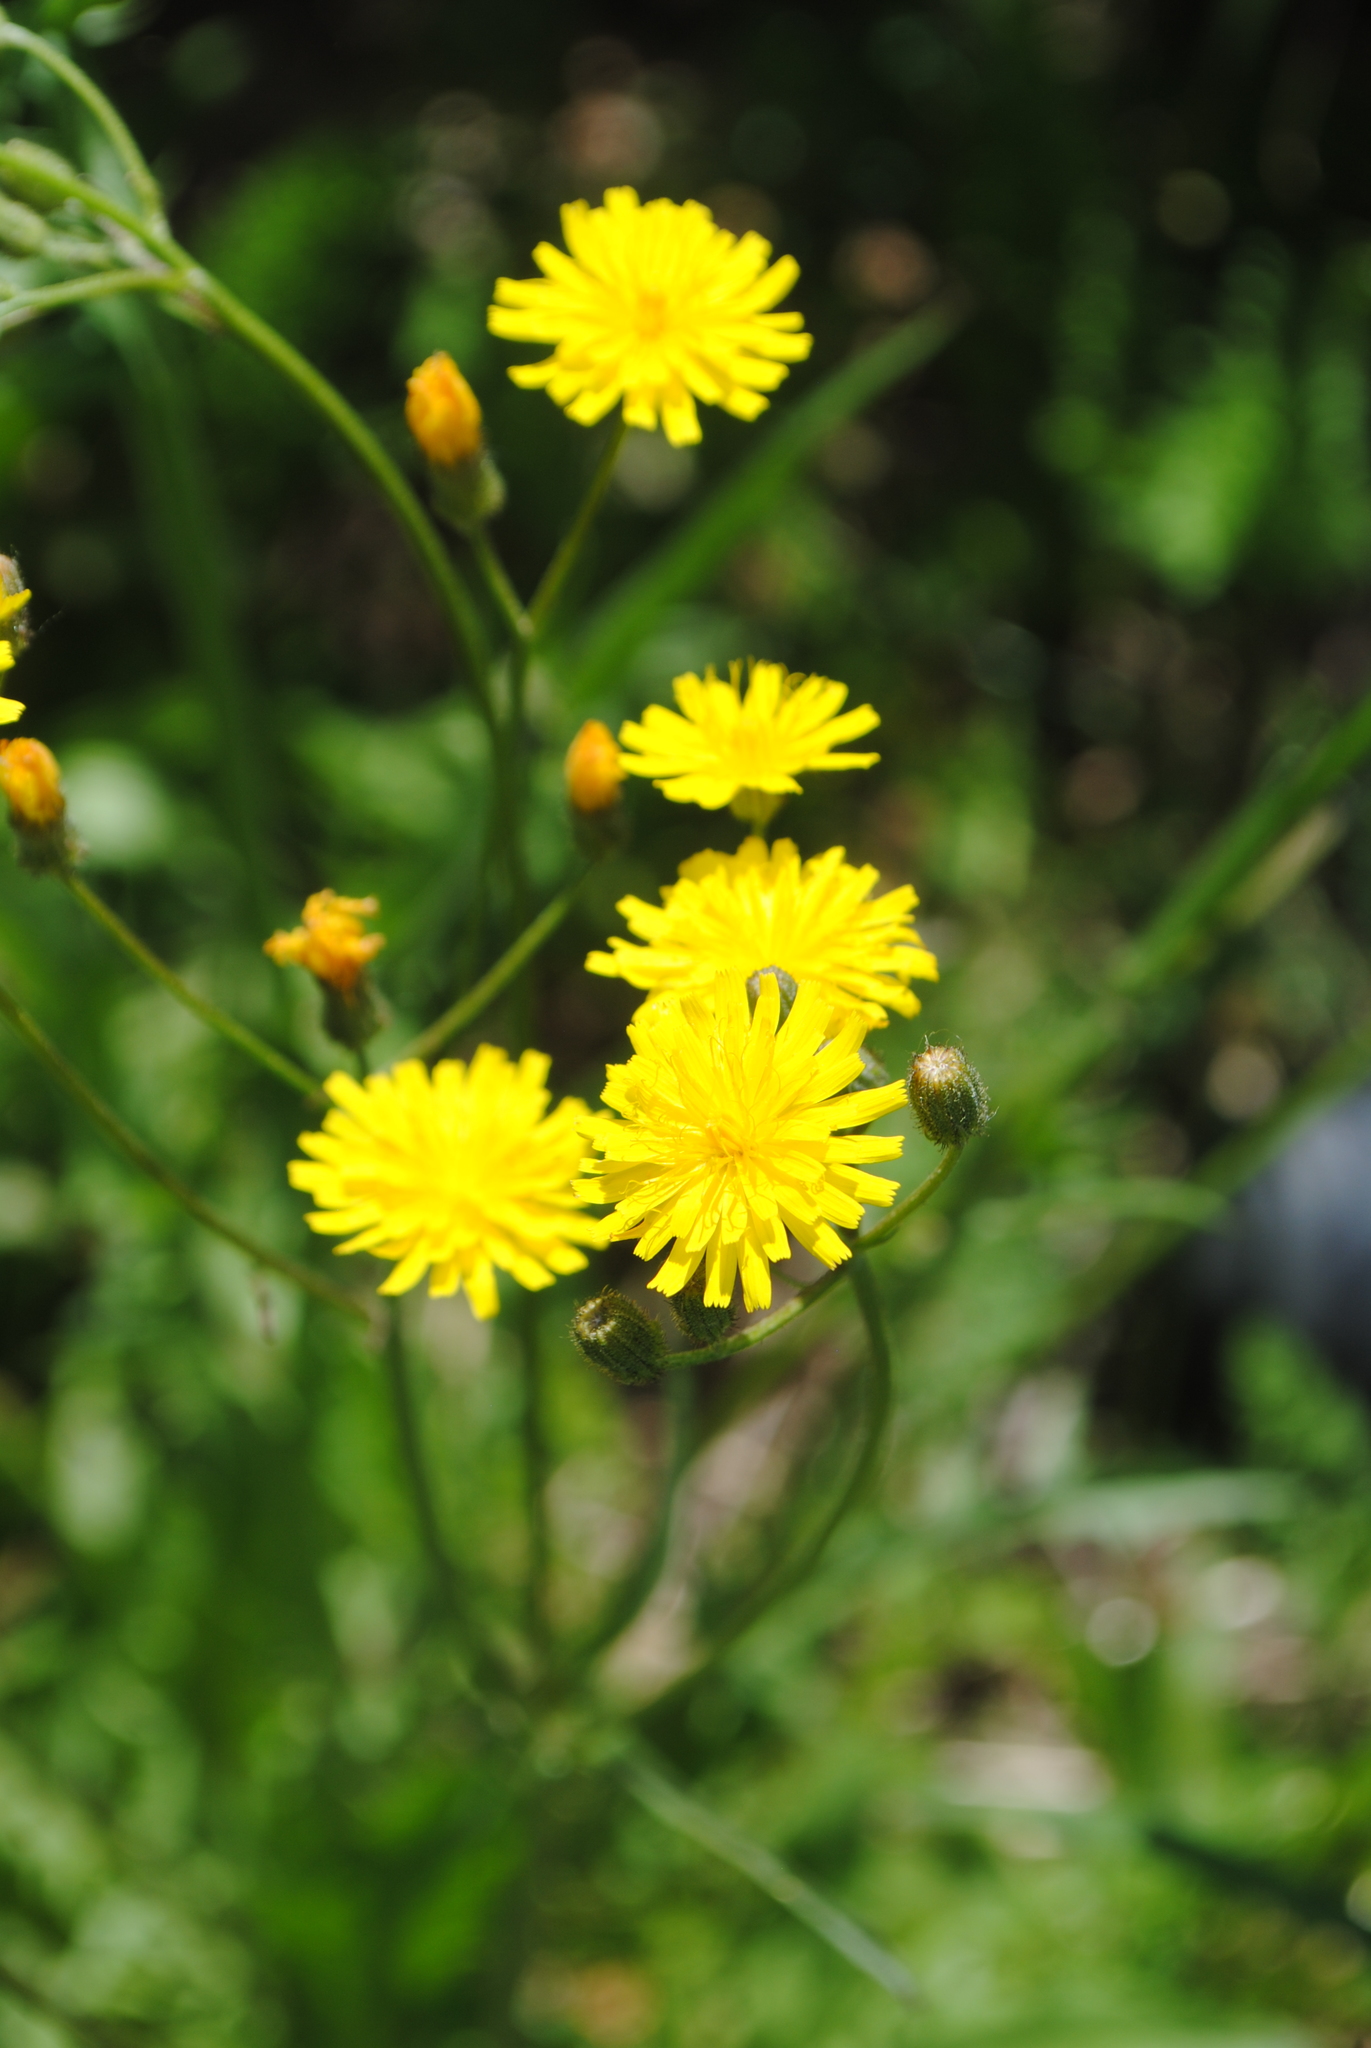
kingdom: Plantae
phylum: Tracheophyta
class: Magnoliopsida
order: Asterales
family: Asteraceae
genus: Crepis
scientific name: Crepis capillaris
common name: Smooth hawksbeard
